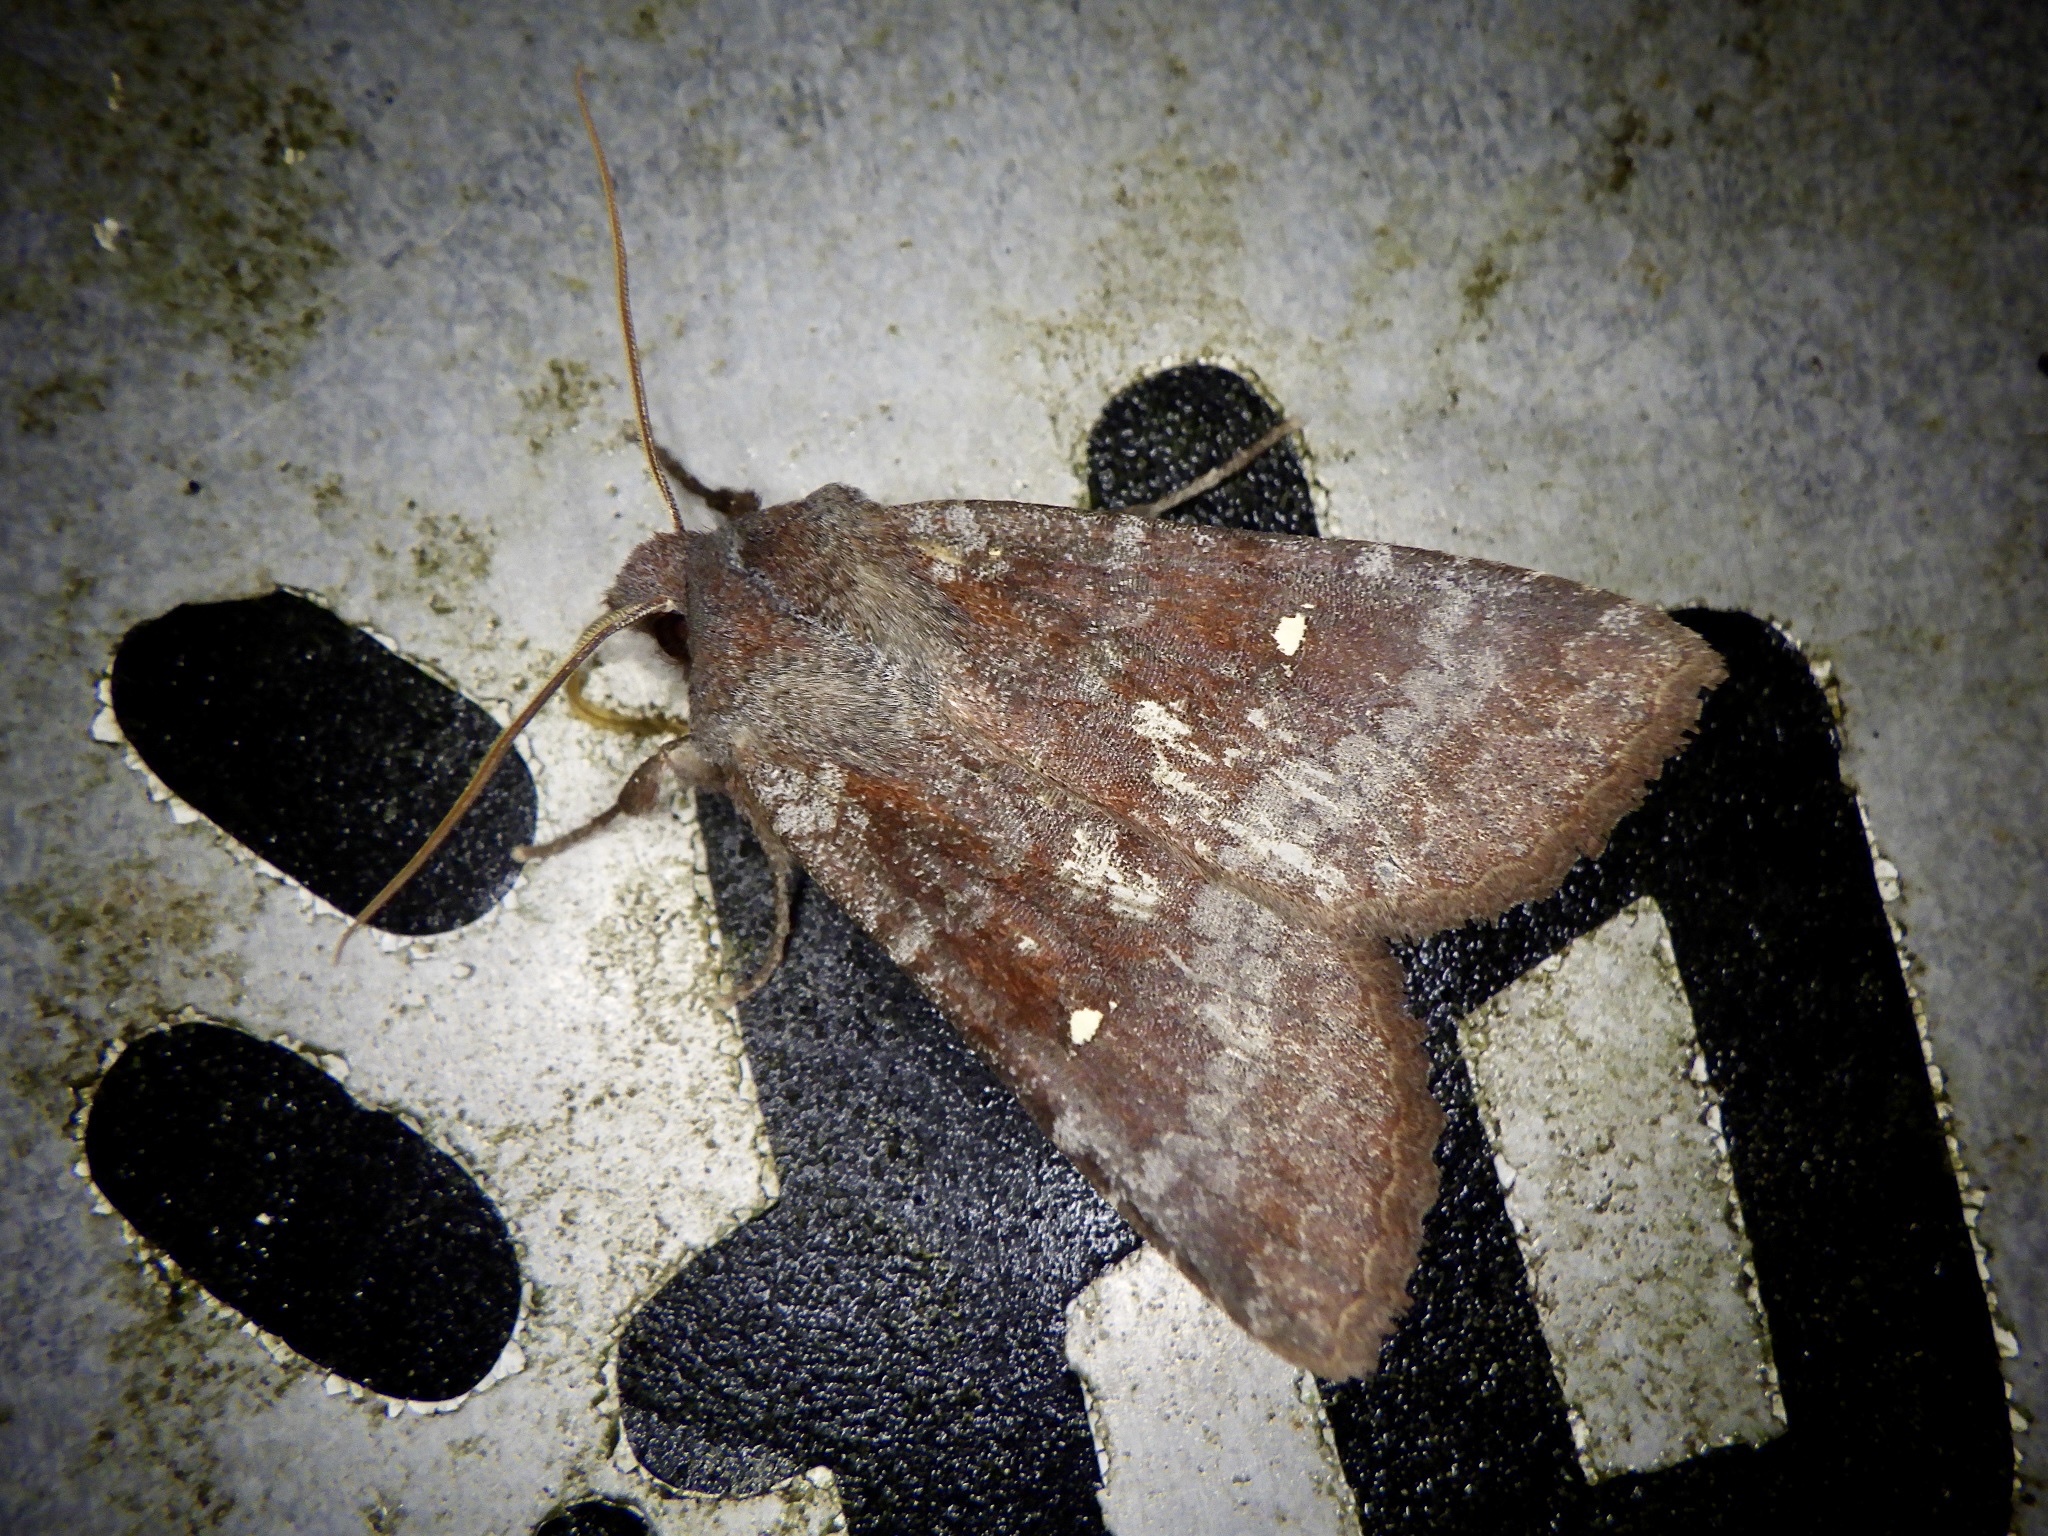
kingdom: Animalia
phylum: Arthropoda
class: Insecta
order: Lepidoptera
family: Noctuidae
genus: Eupsilia
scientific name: Eupsilia unipuncta
